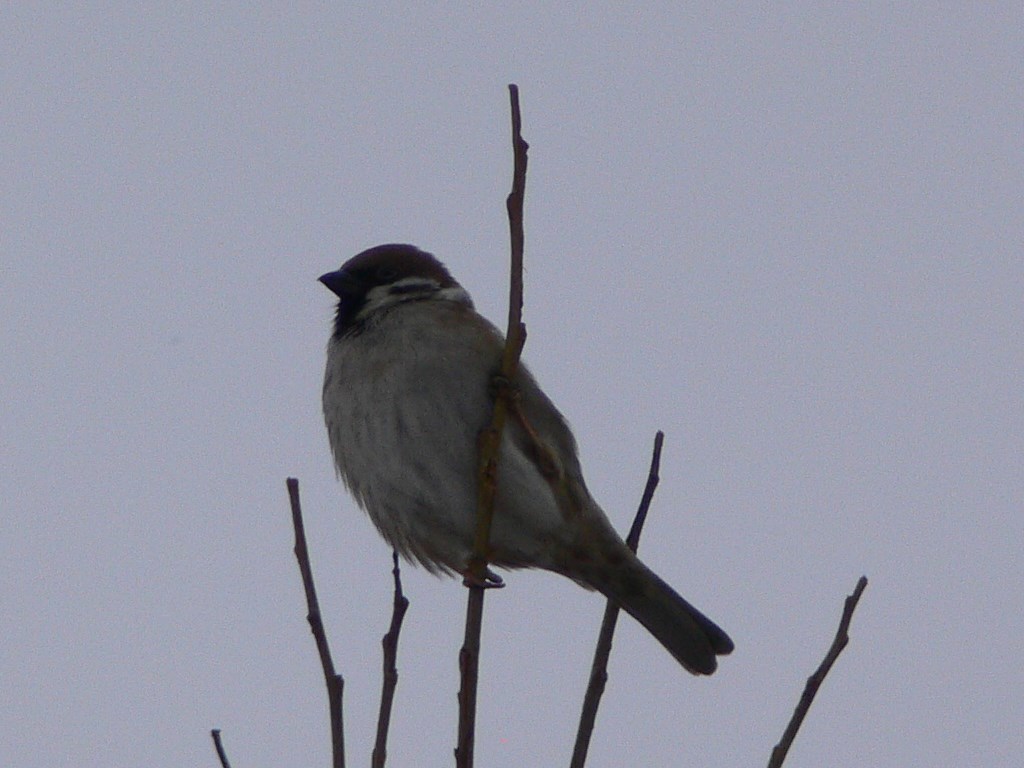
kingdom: Animalia
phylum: Chordata
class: Aves
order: Passeriformes
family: Passeridae
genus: Passer
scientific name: Passer montanus
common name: Eurasian tree sparrow
